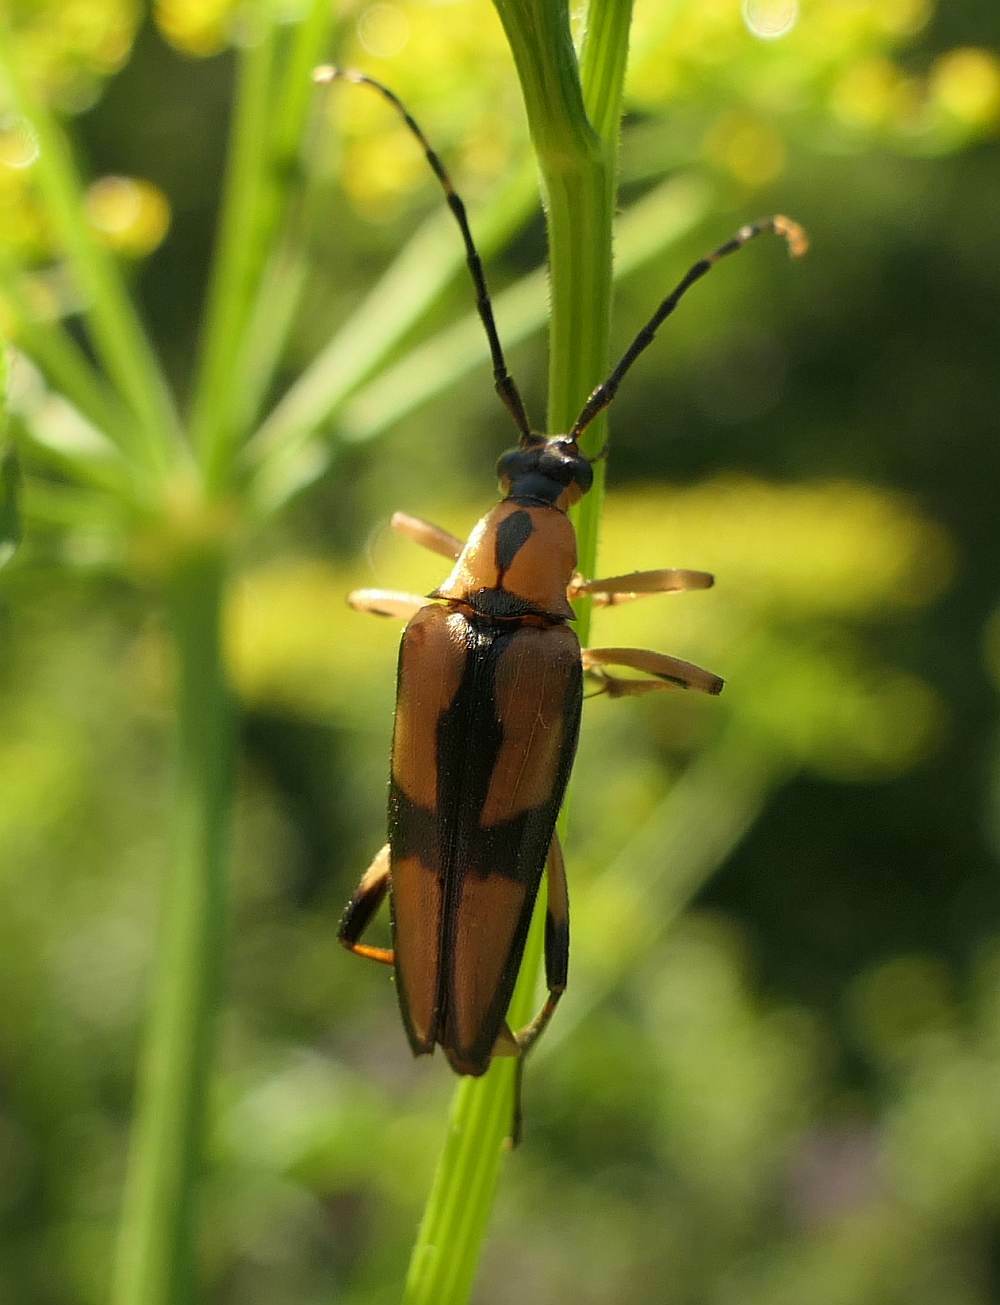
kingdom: Animalia
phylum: Arthropoda
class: Insecta
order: Coleoptera
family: Cerambycidae
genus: Etorofus
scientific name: Etorofus
